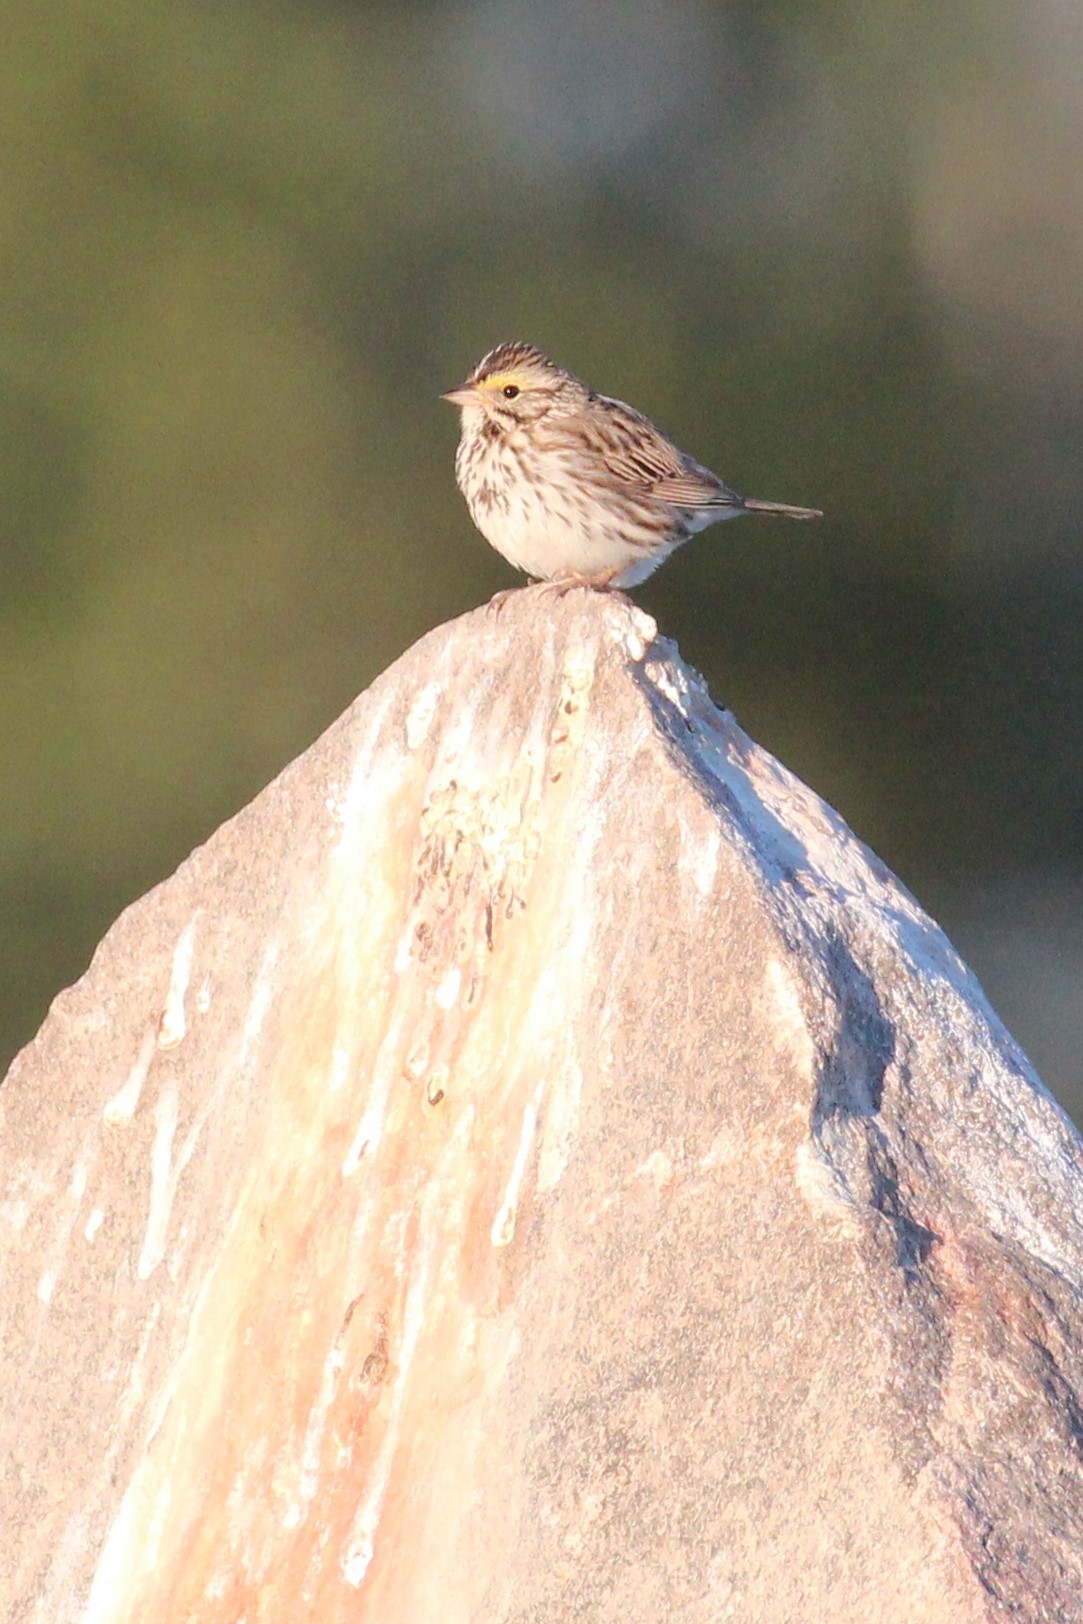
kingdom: Animalia
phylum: Chordata
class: Aves
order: Passeriformes
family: Passerellidae
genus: Passerculus
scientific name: Passerculus sandwichensis
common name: Savannah sparrow
